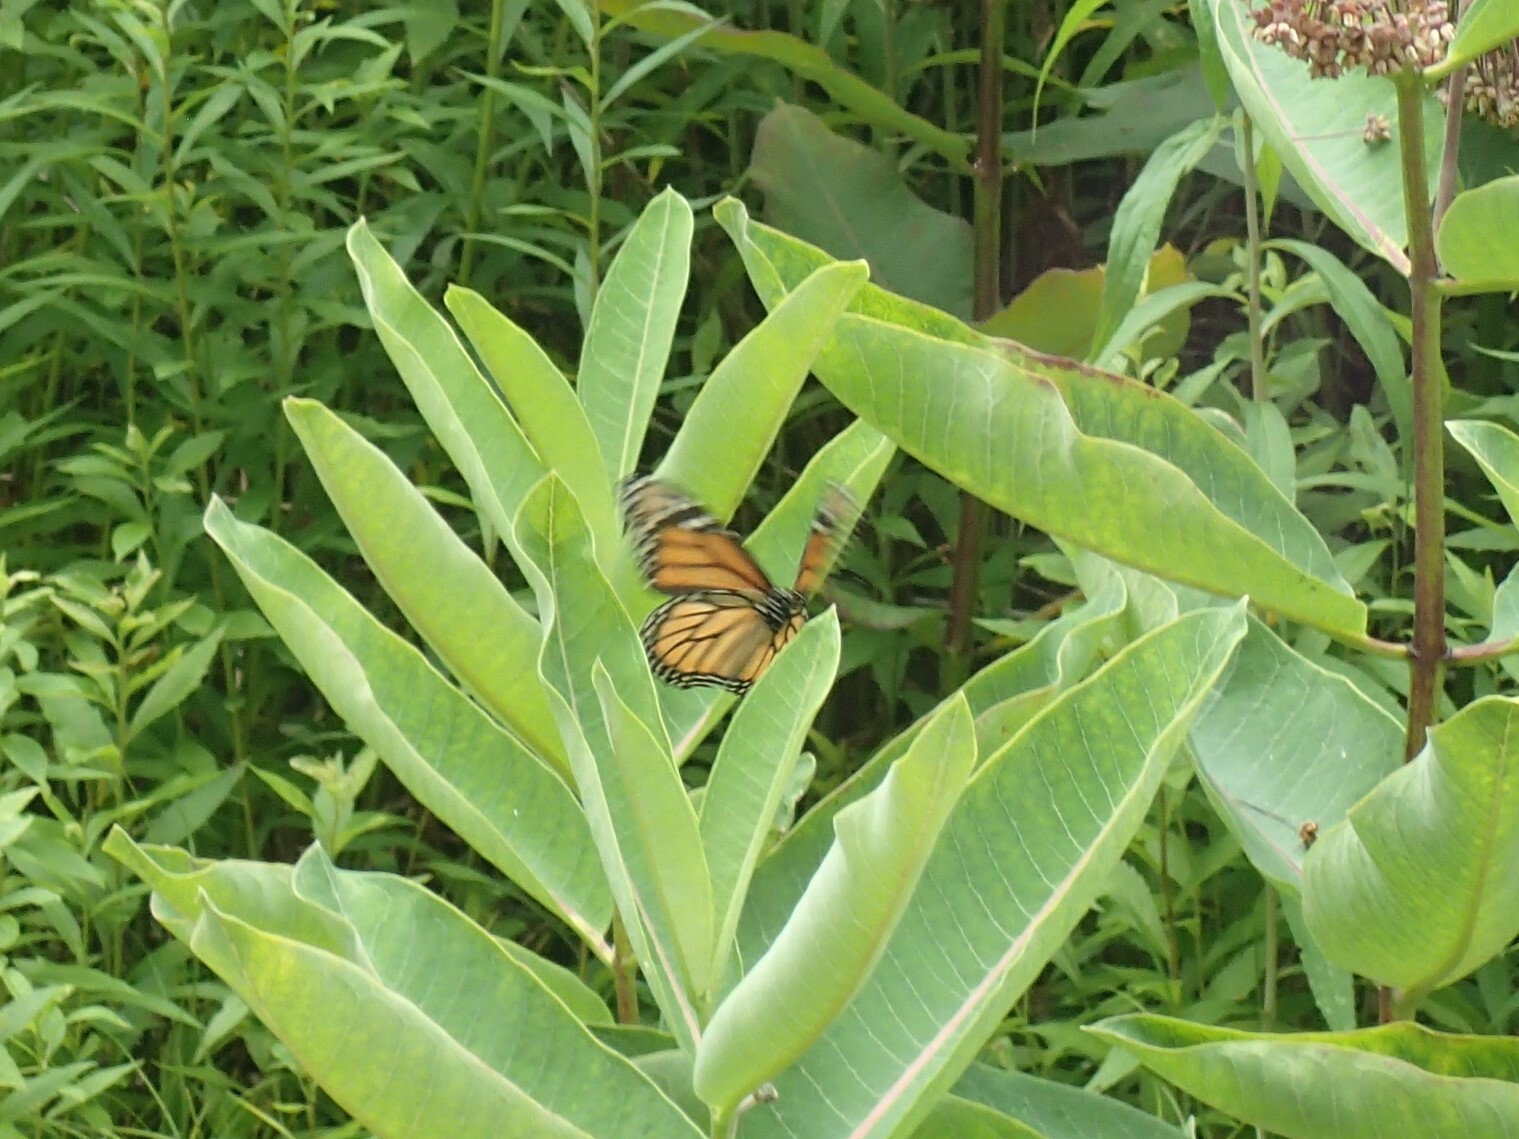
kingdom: Animalia
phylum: Arthropoda
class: Insecta
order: Lepidoptera
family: Nymphalidae
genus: Danaus
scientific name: Danaus plexippus
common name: Monarch
